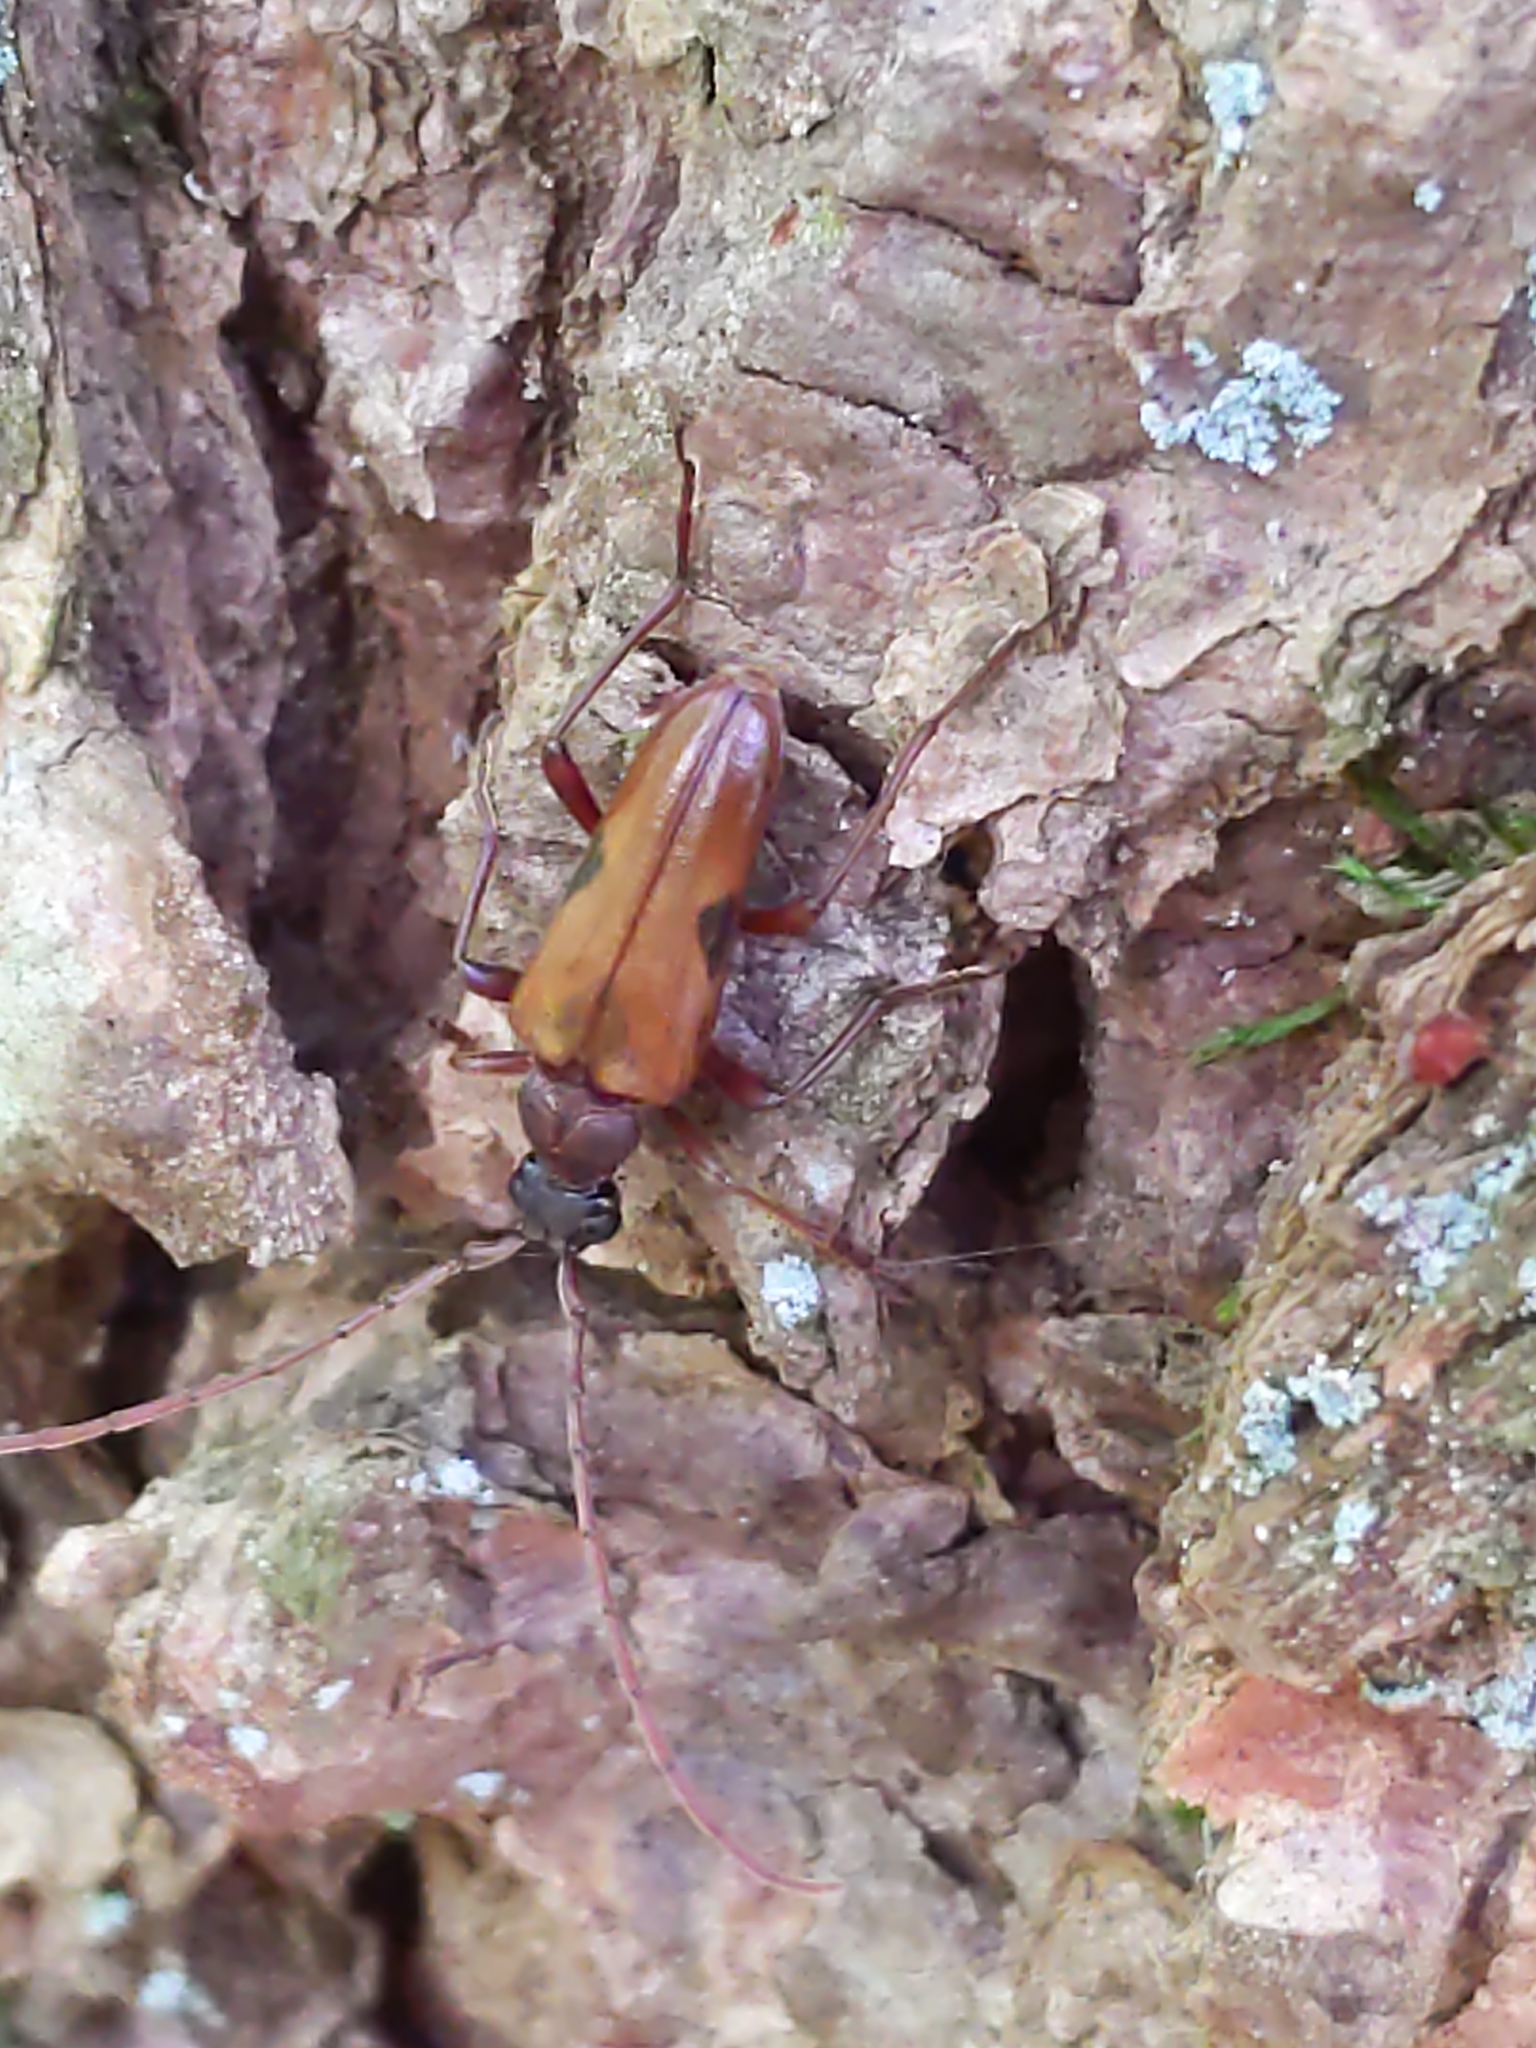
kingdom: Animalia
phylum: Arthropoda
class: Insecta
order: Coleoptera
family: Cerambycidae
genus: Lepturopsis
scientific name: Lepturopsis biforis
